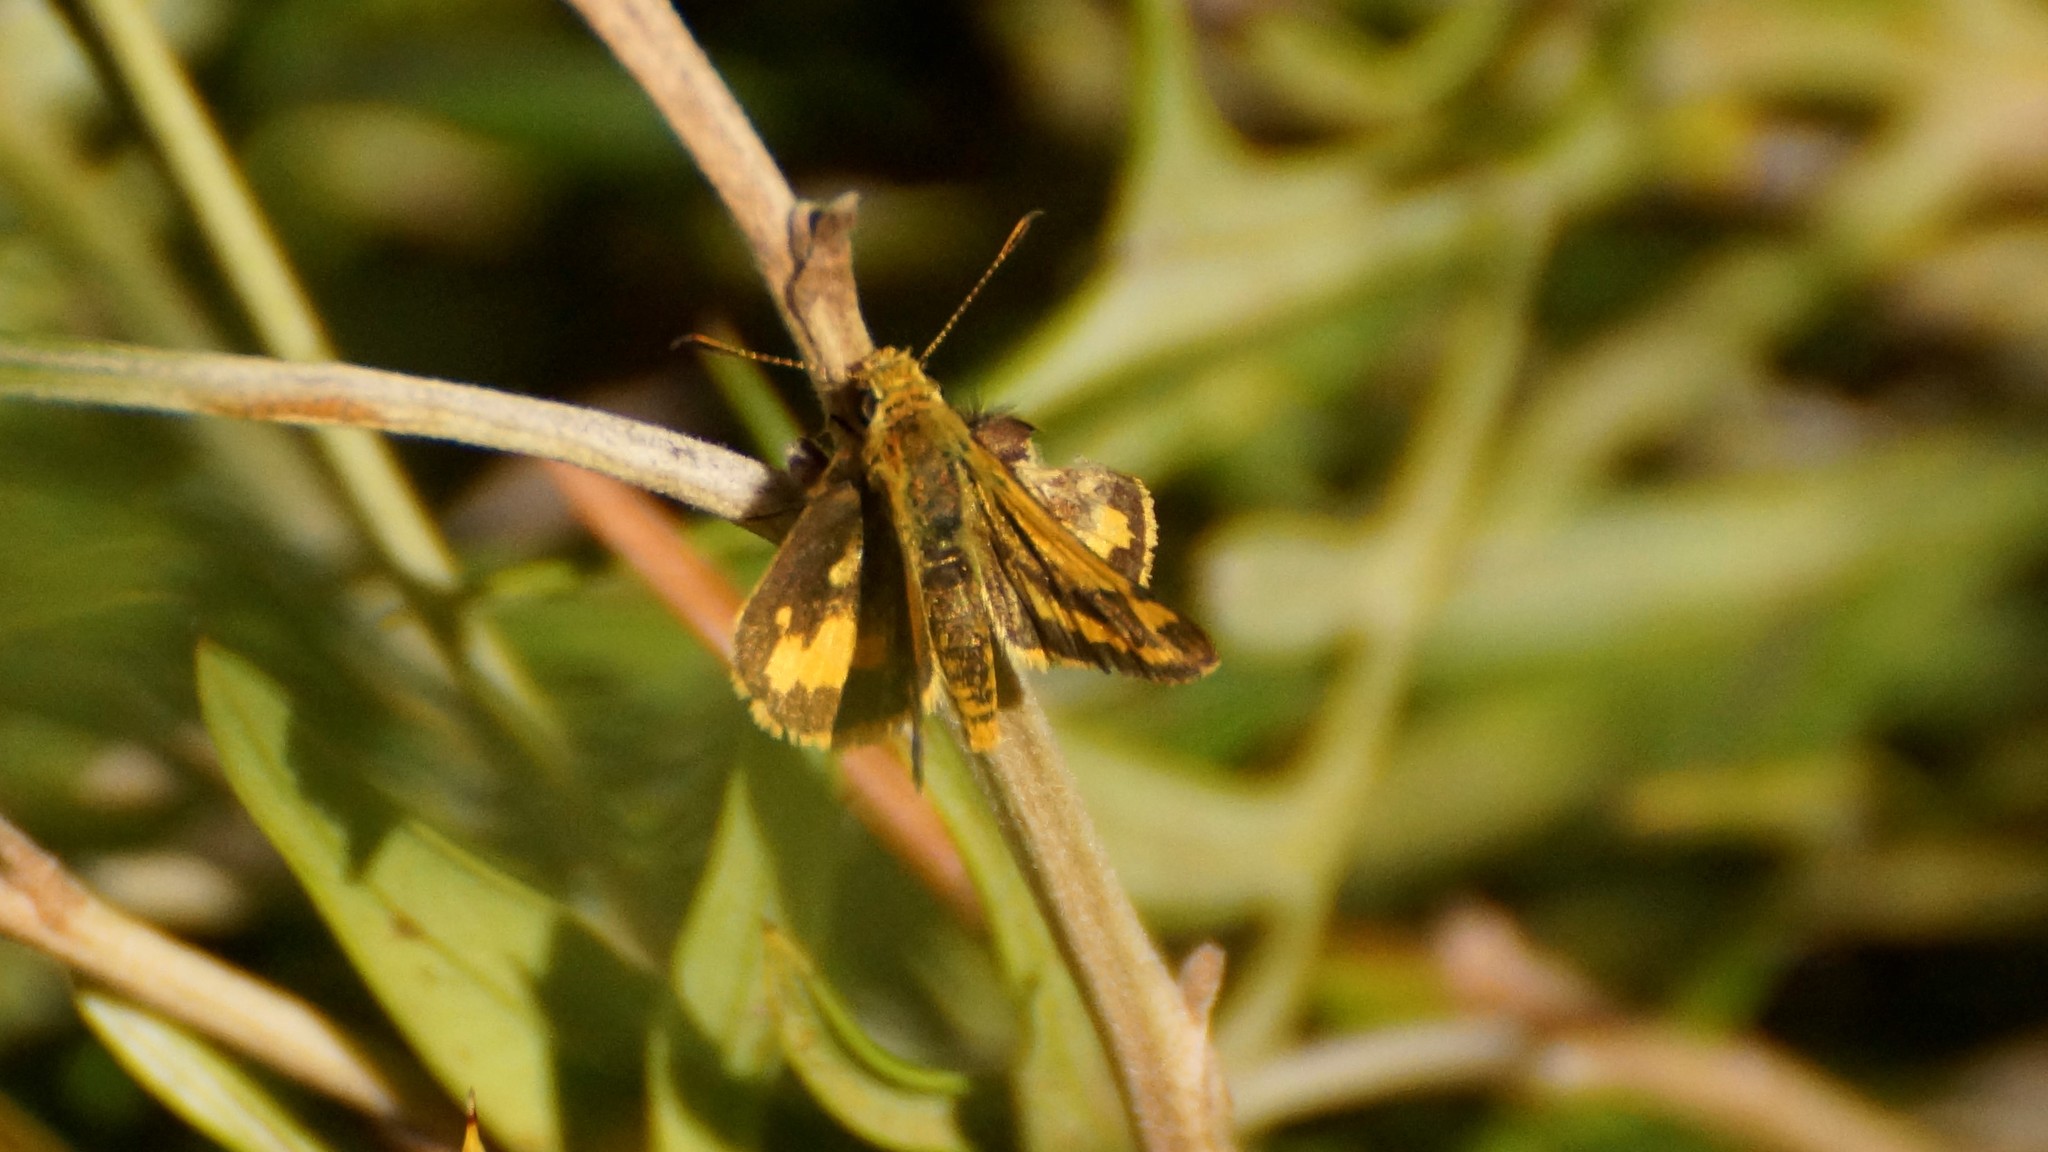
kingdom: Animalia
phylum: Arthropoda
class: Insecta
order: Lepidoptera
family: Hesperiidae
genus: Ocybadistes
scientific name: Ocybadistes walkeri
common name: Yellow-banded dart
